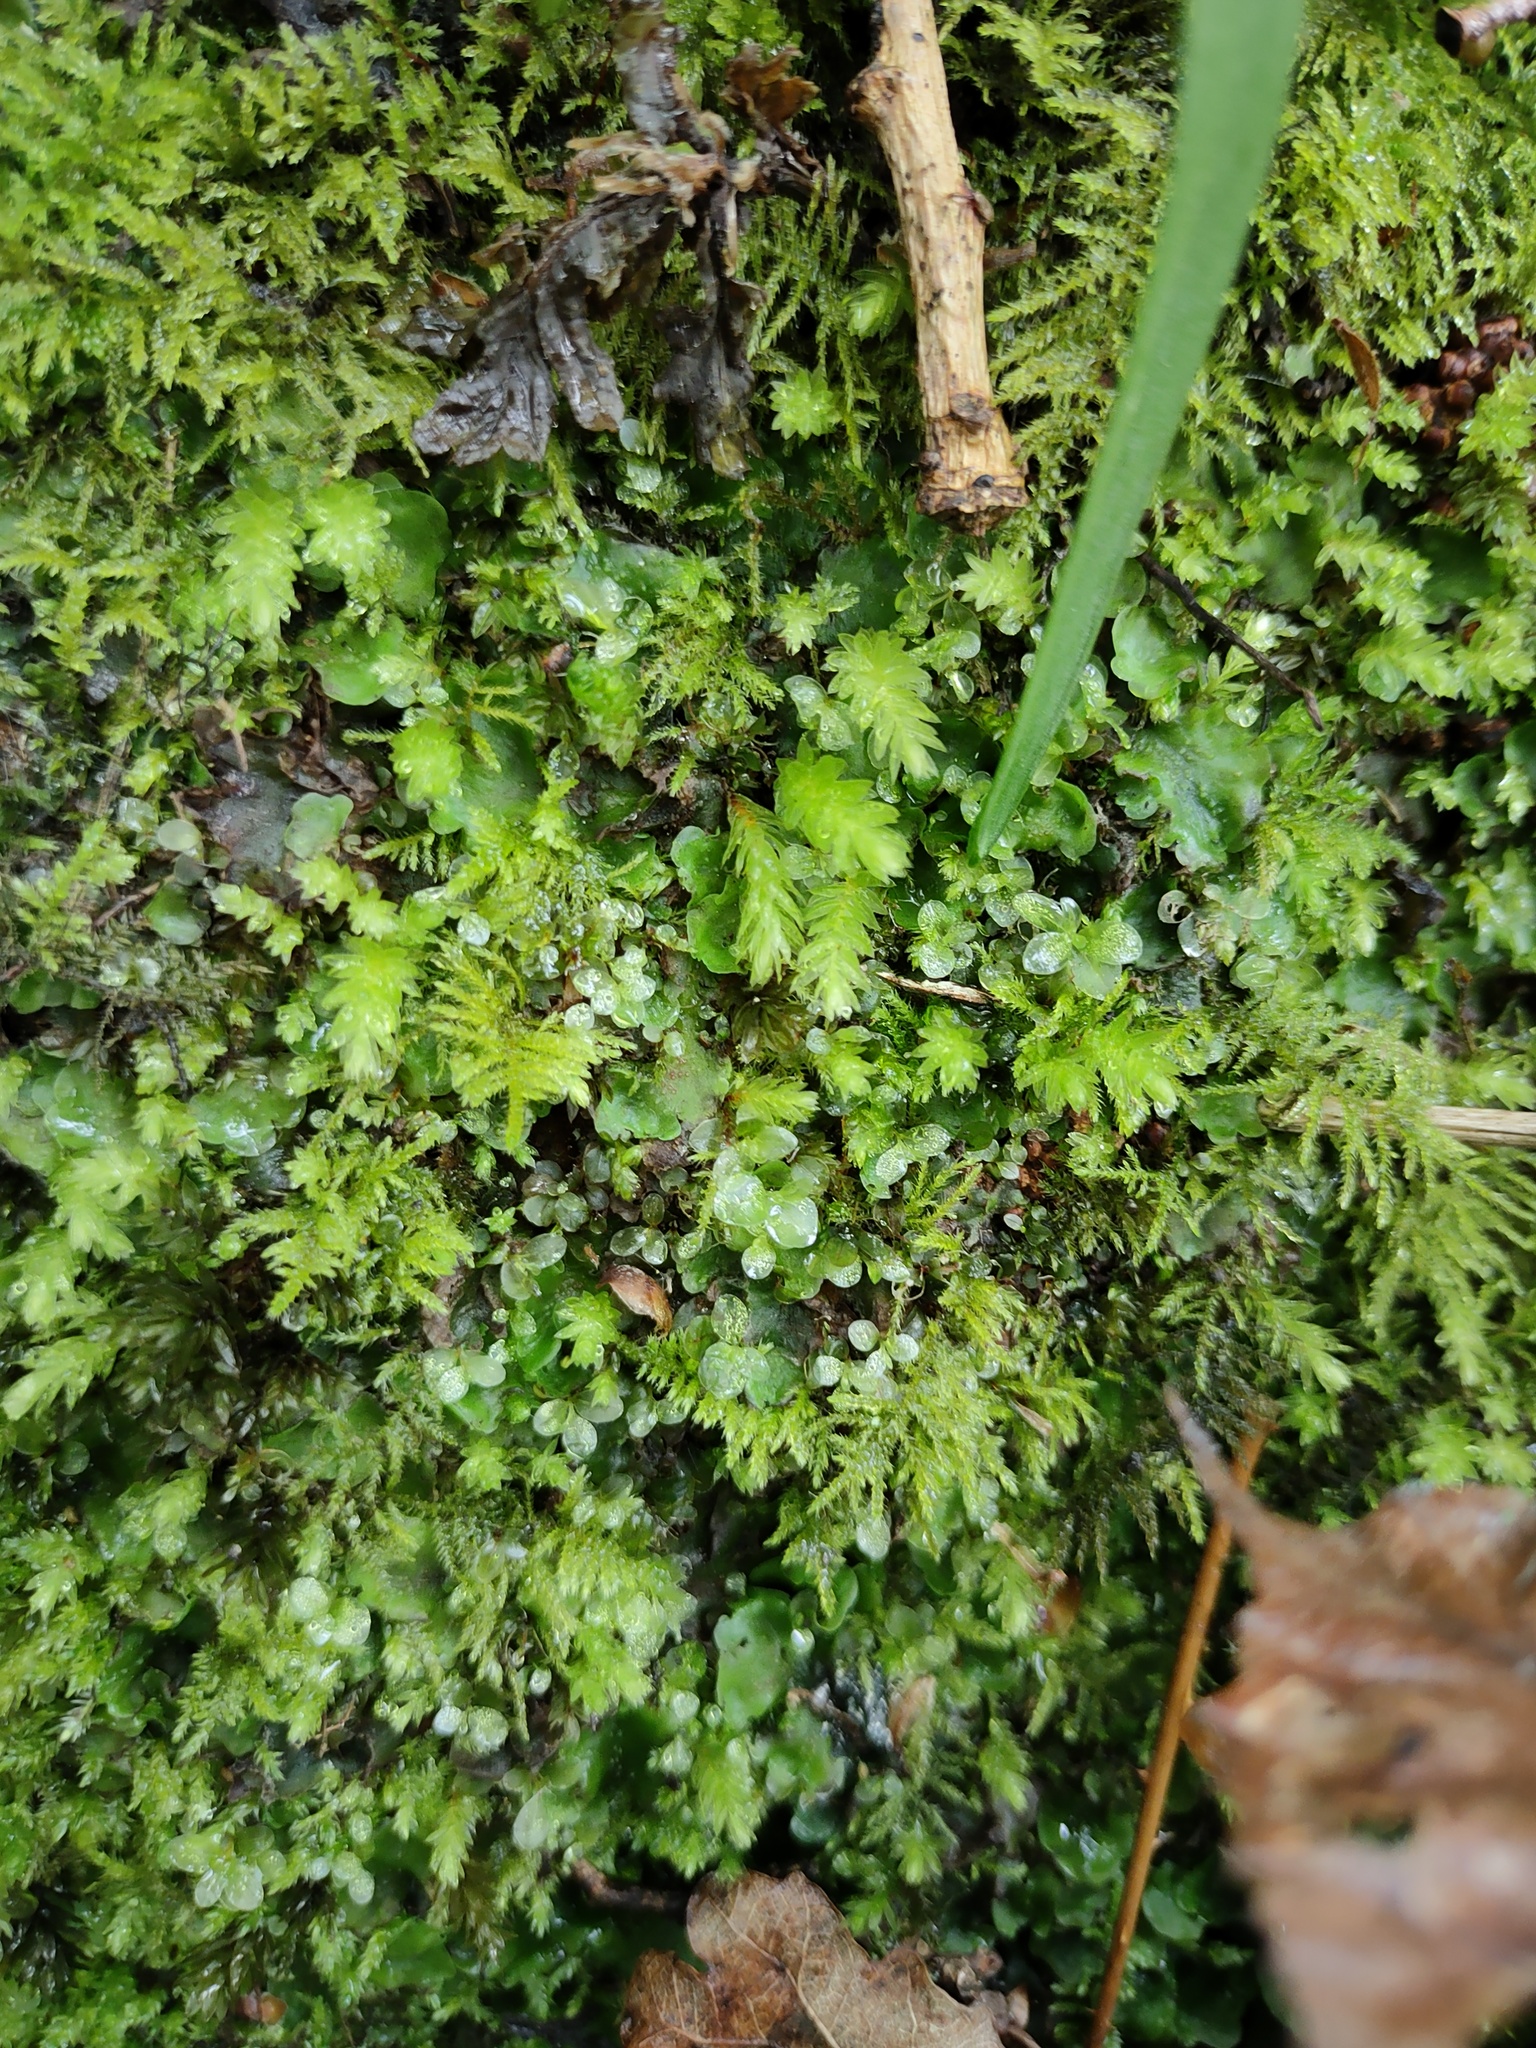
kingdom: Plantae
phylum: Bryophyta
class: Bryopsida
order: Bryales
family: Mniaceae
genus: Rhizomnium
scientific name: Rhizomnium punctatum
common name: Dotted leafy moss
